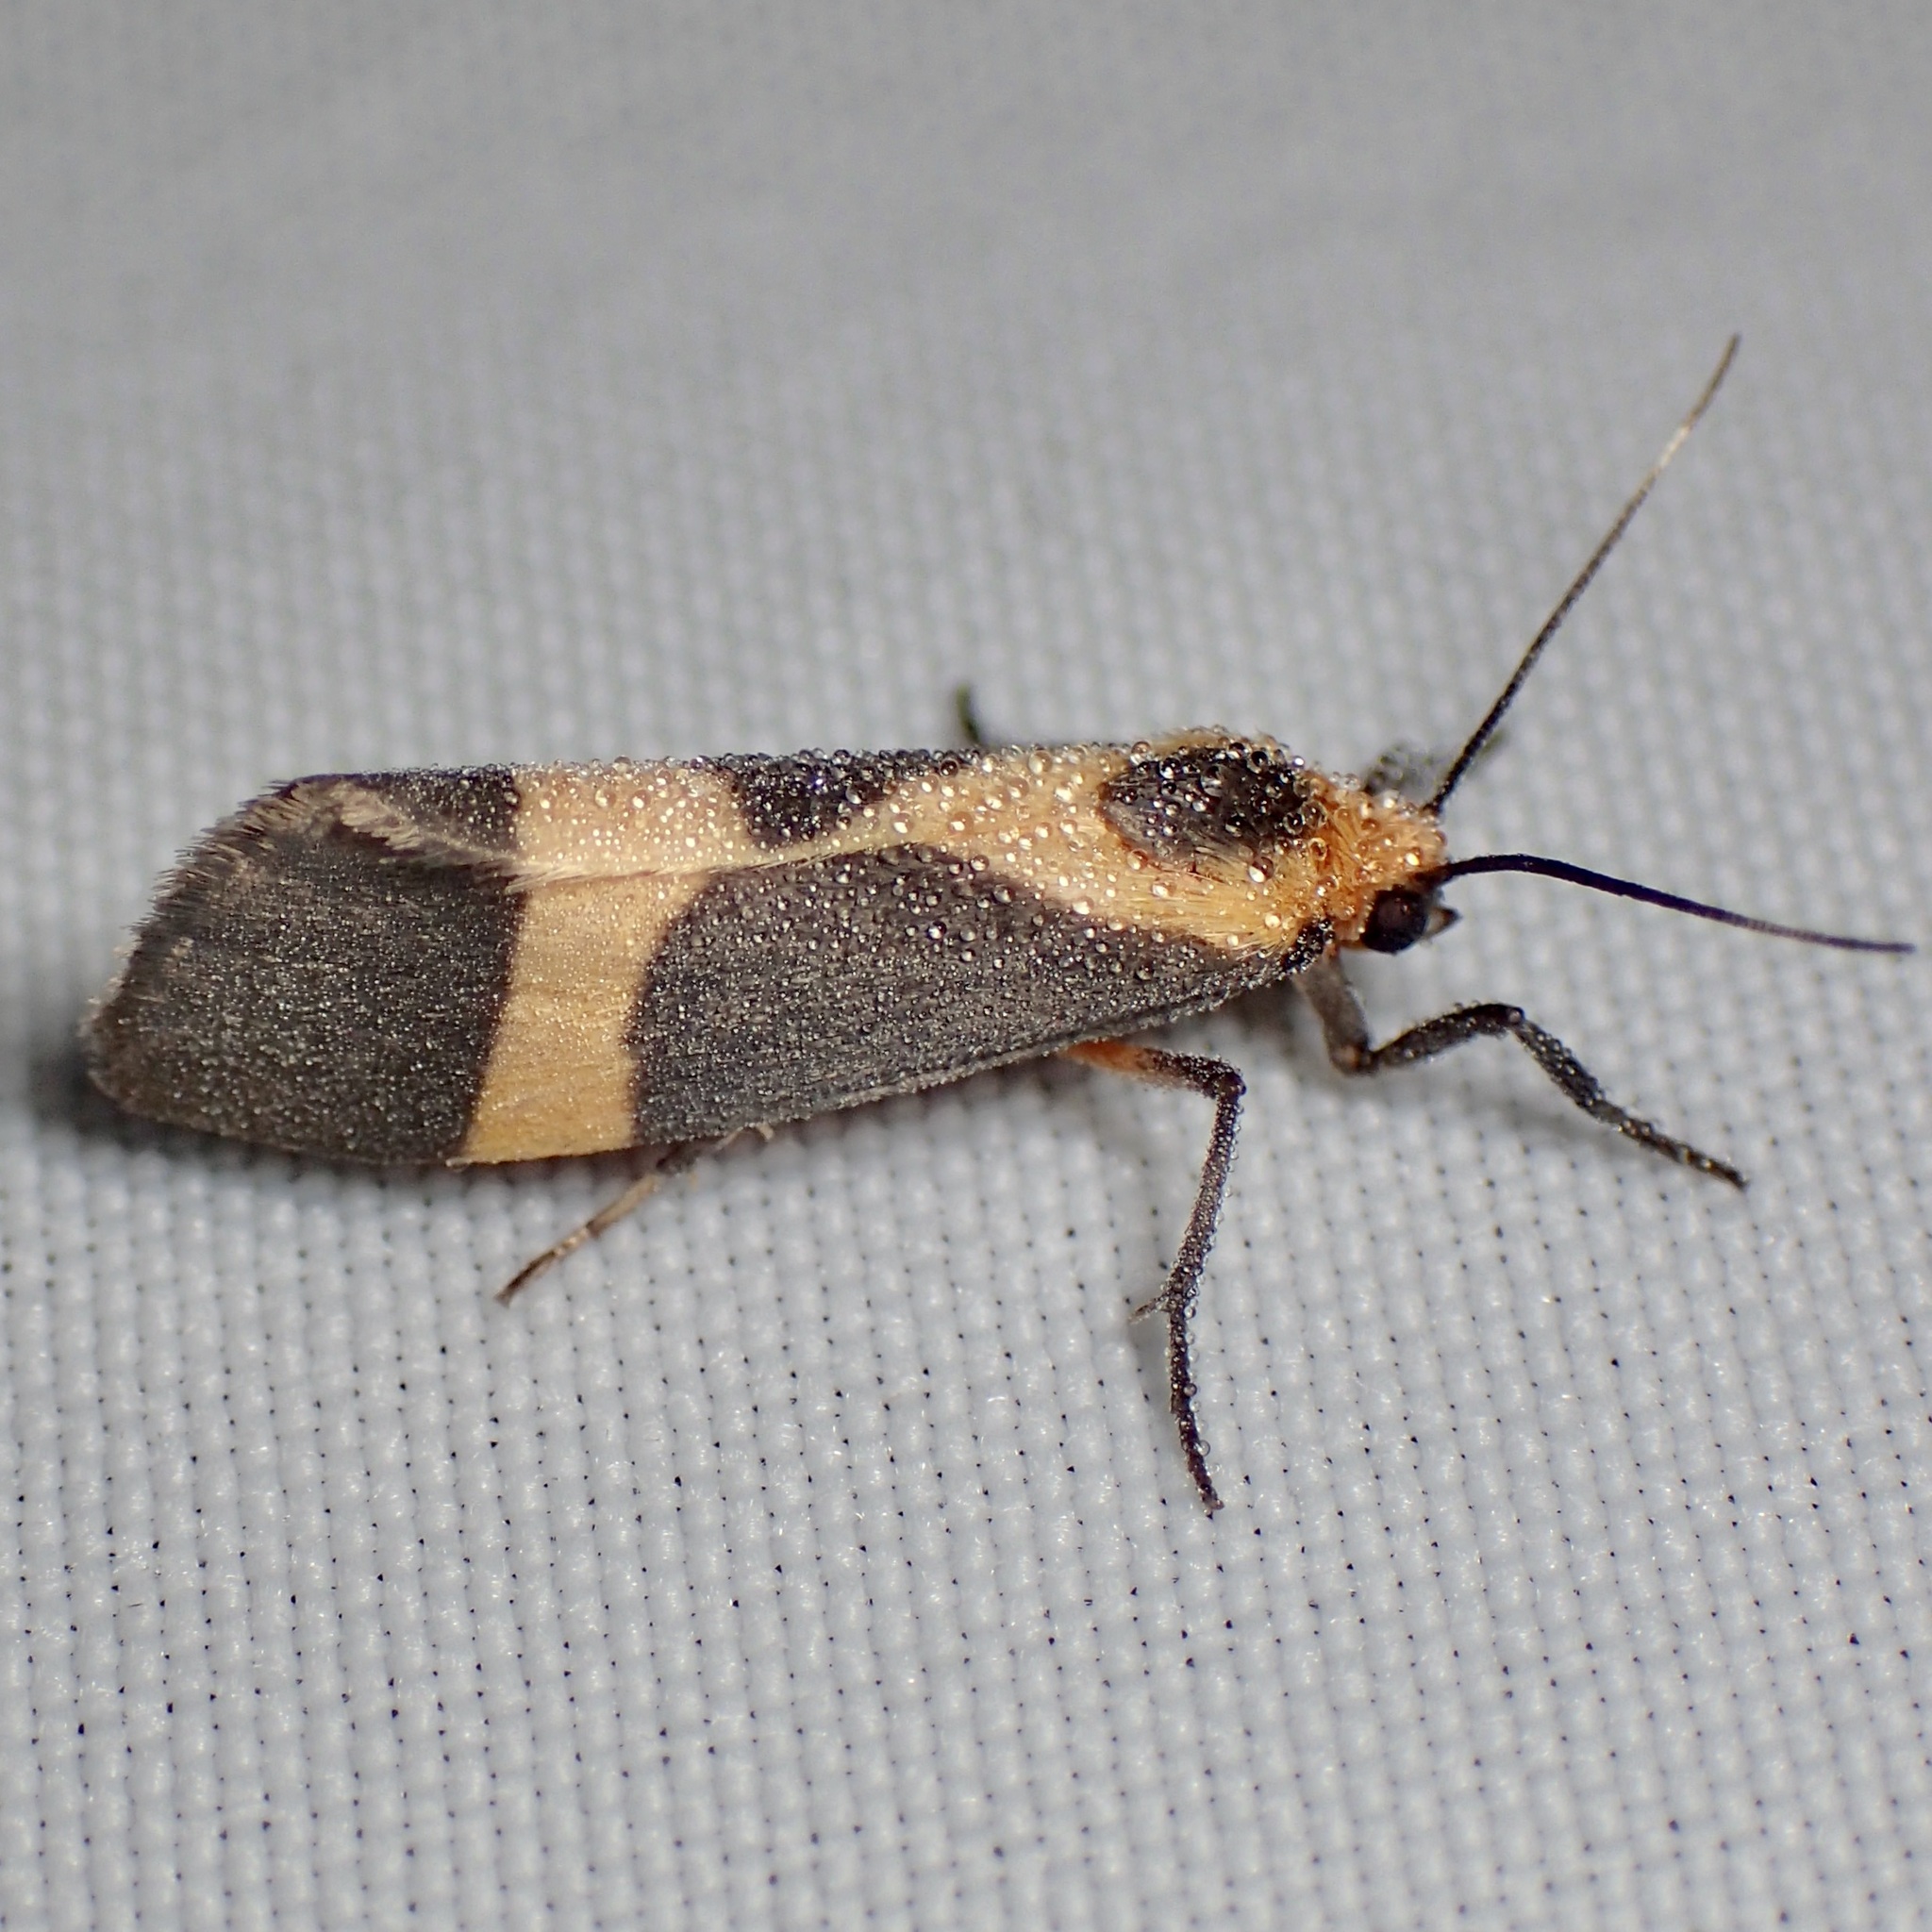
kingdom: Animalia
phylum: Arthropoda
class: Insecta
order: Lepidoptera
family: Erebidae
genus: Cisthene
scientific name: Cisthene tenuifascia
